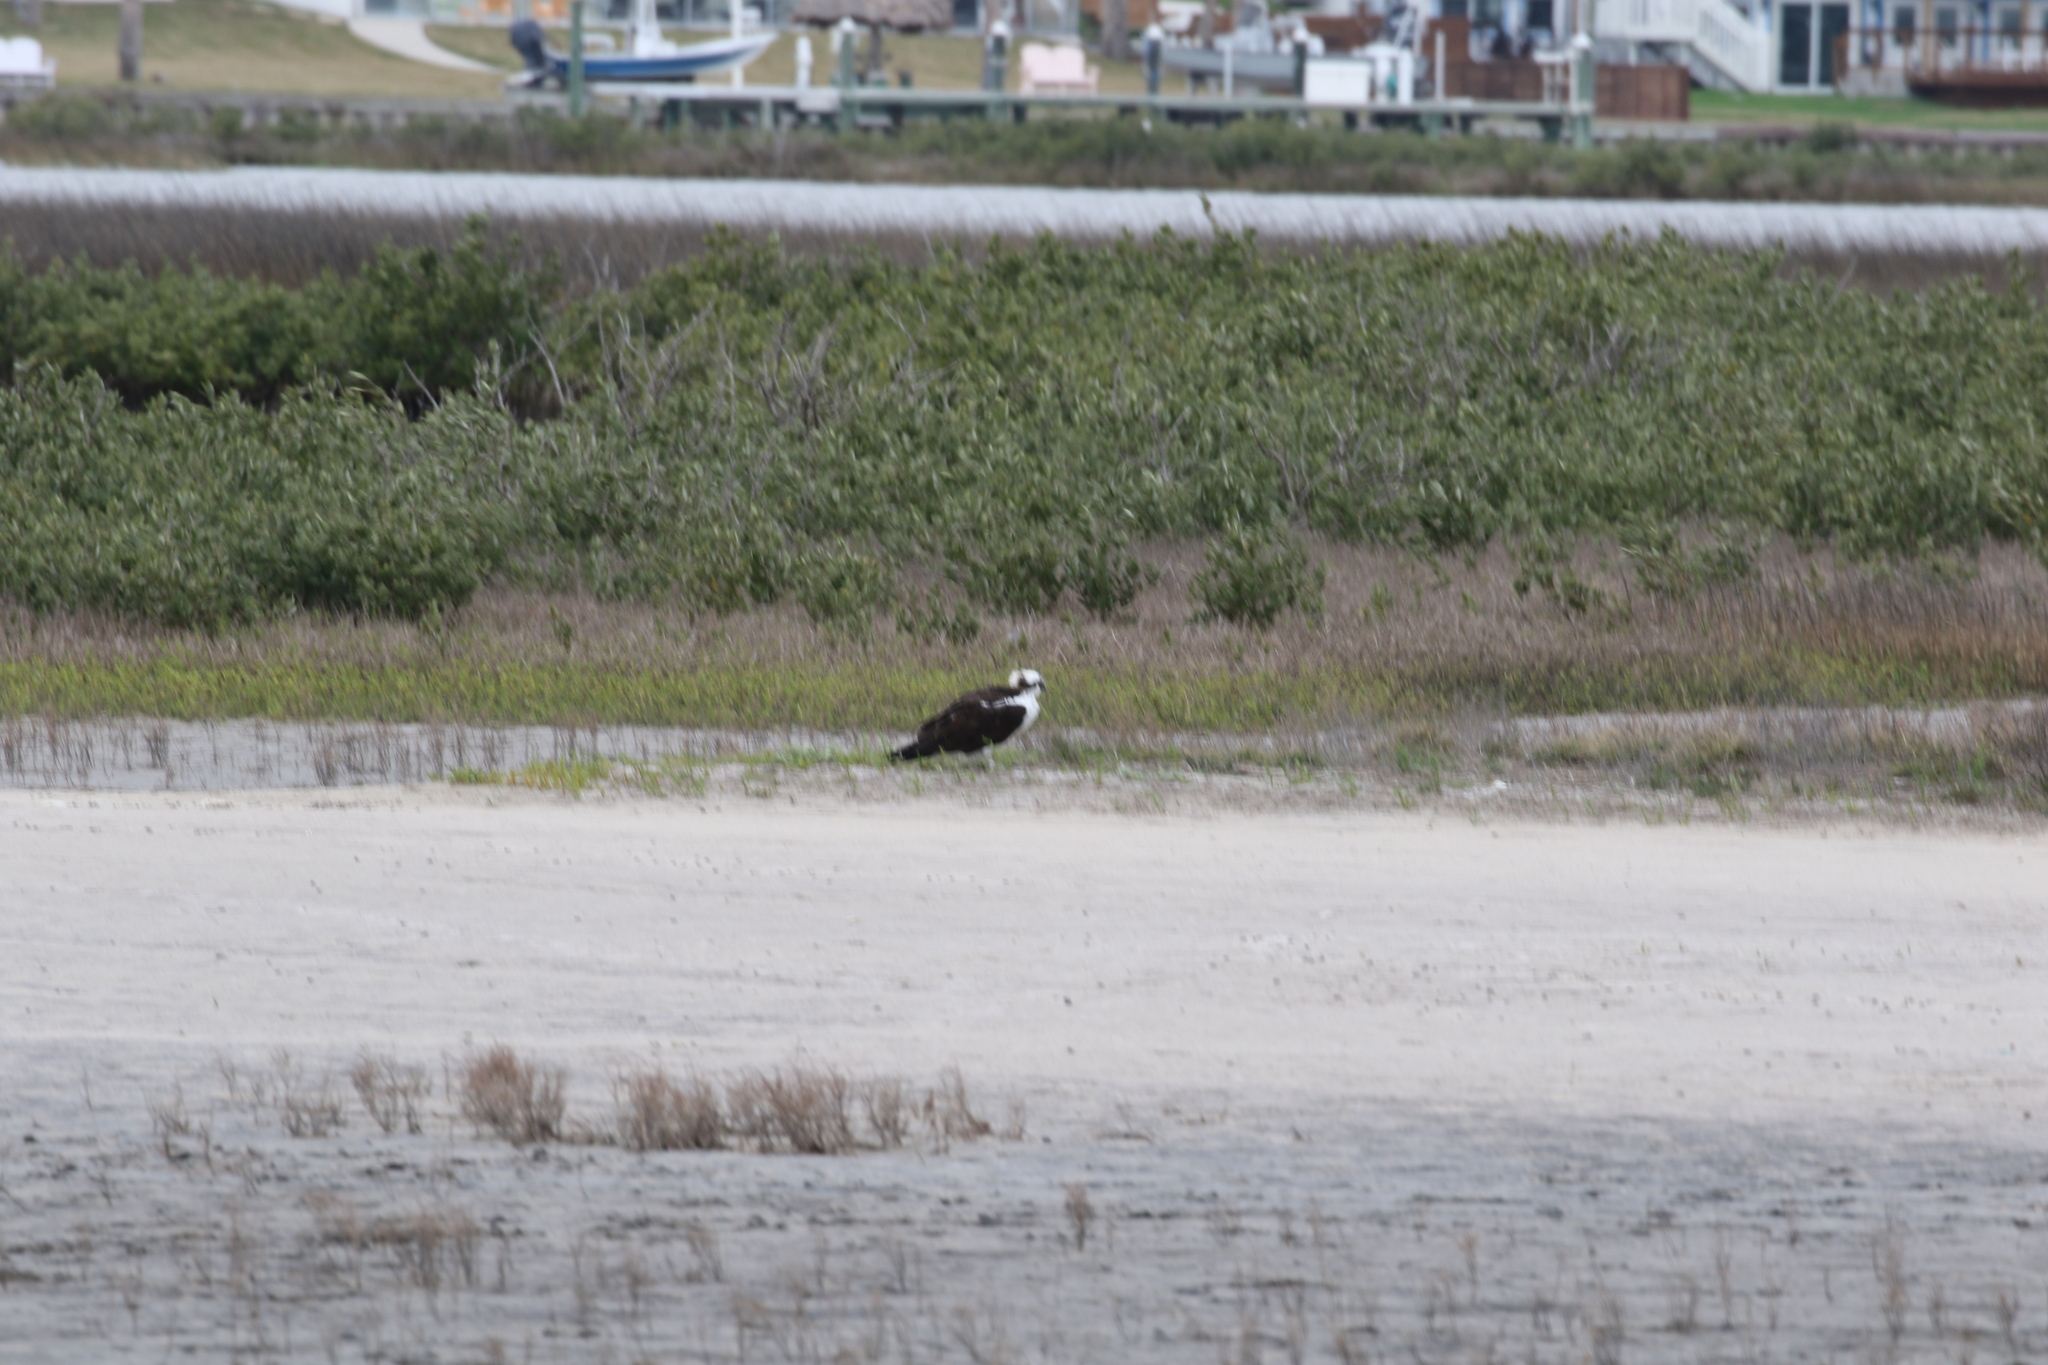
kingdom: Animalia
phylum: Chordata
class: Aves
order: Accipitriformes
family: Pandionidae
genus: Pandion
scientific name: Pandion haliaetus
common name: Osprey
